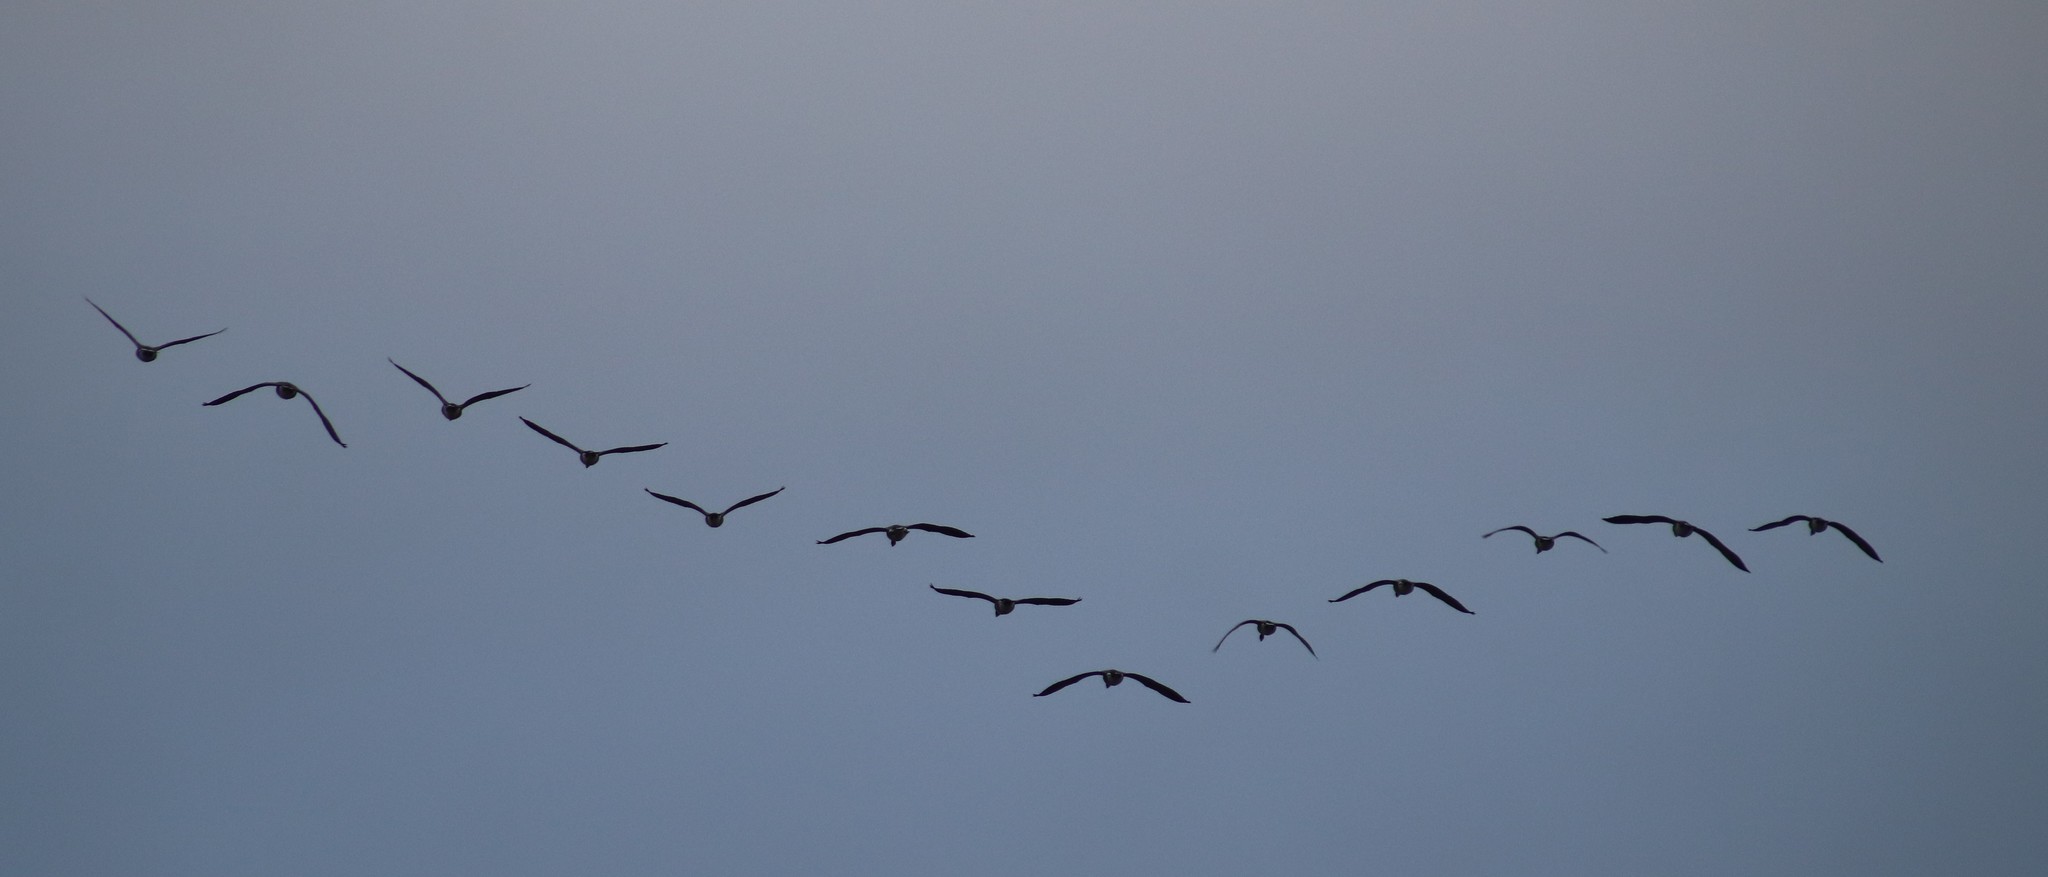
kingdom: Animalia
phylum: Chordata
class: Aves
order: Anseriformes
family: Anatidae
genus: Branta
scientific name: Branta canadensis
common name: Canada goose
